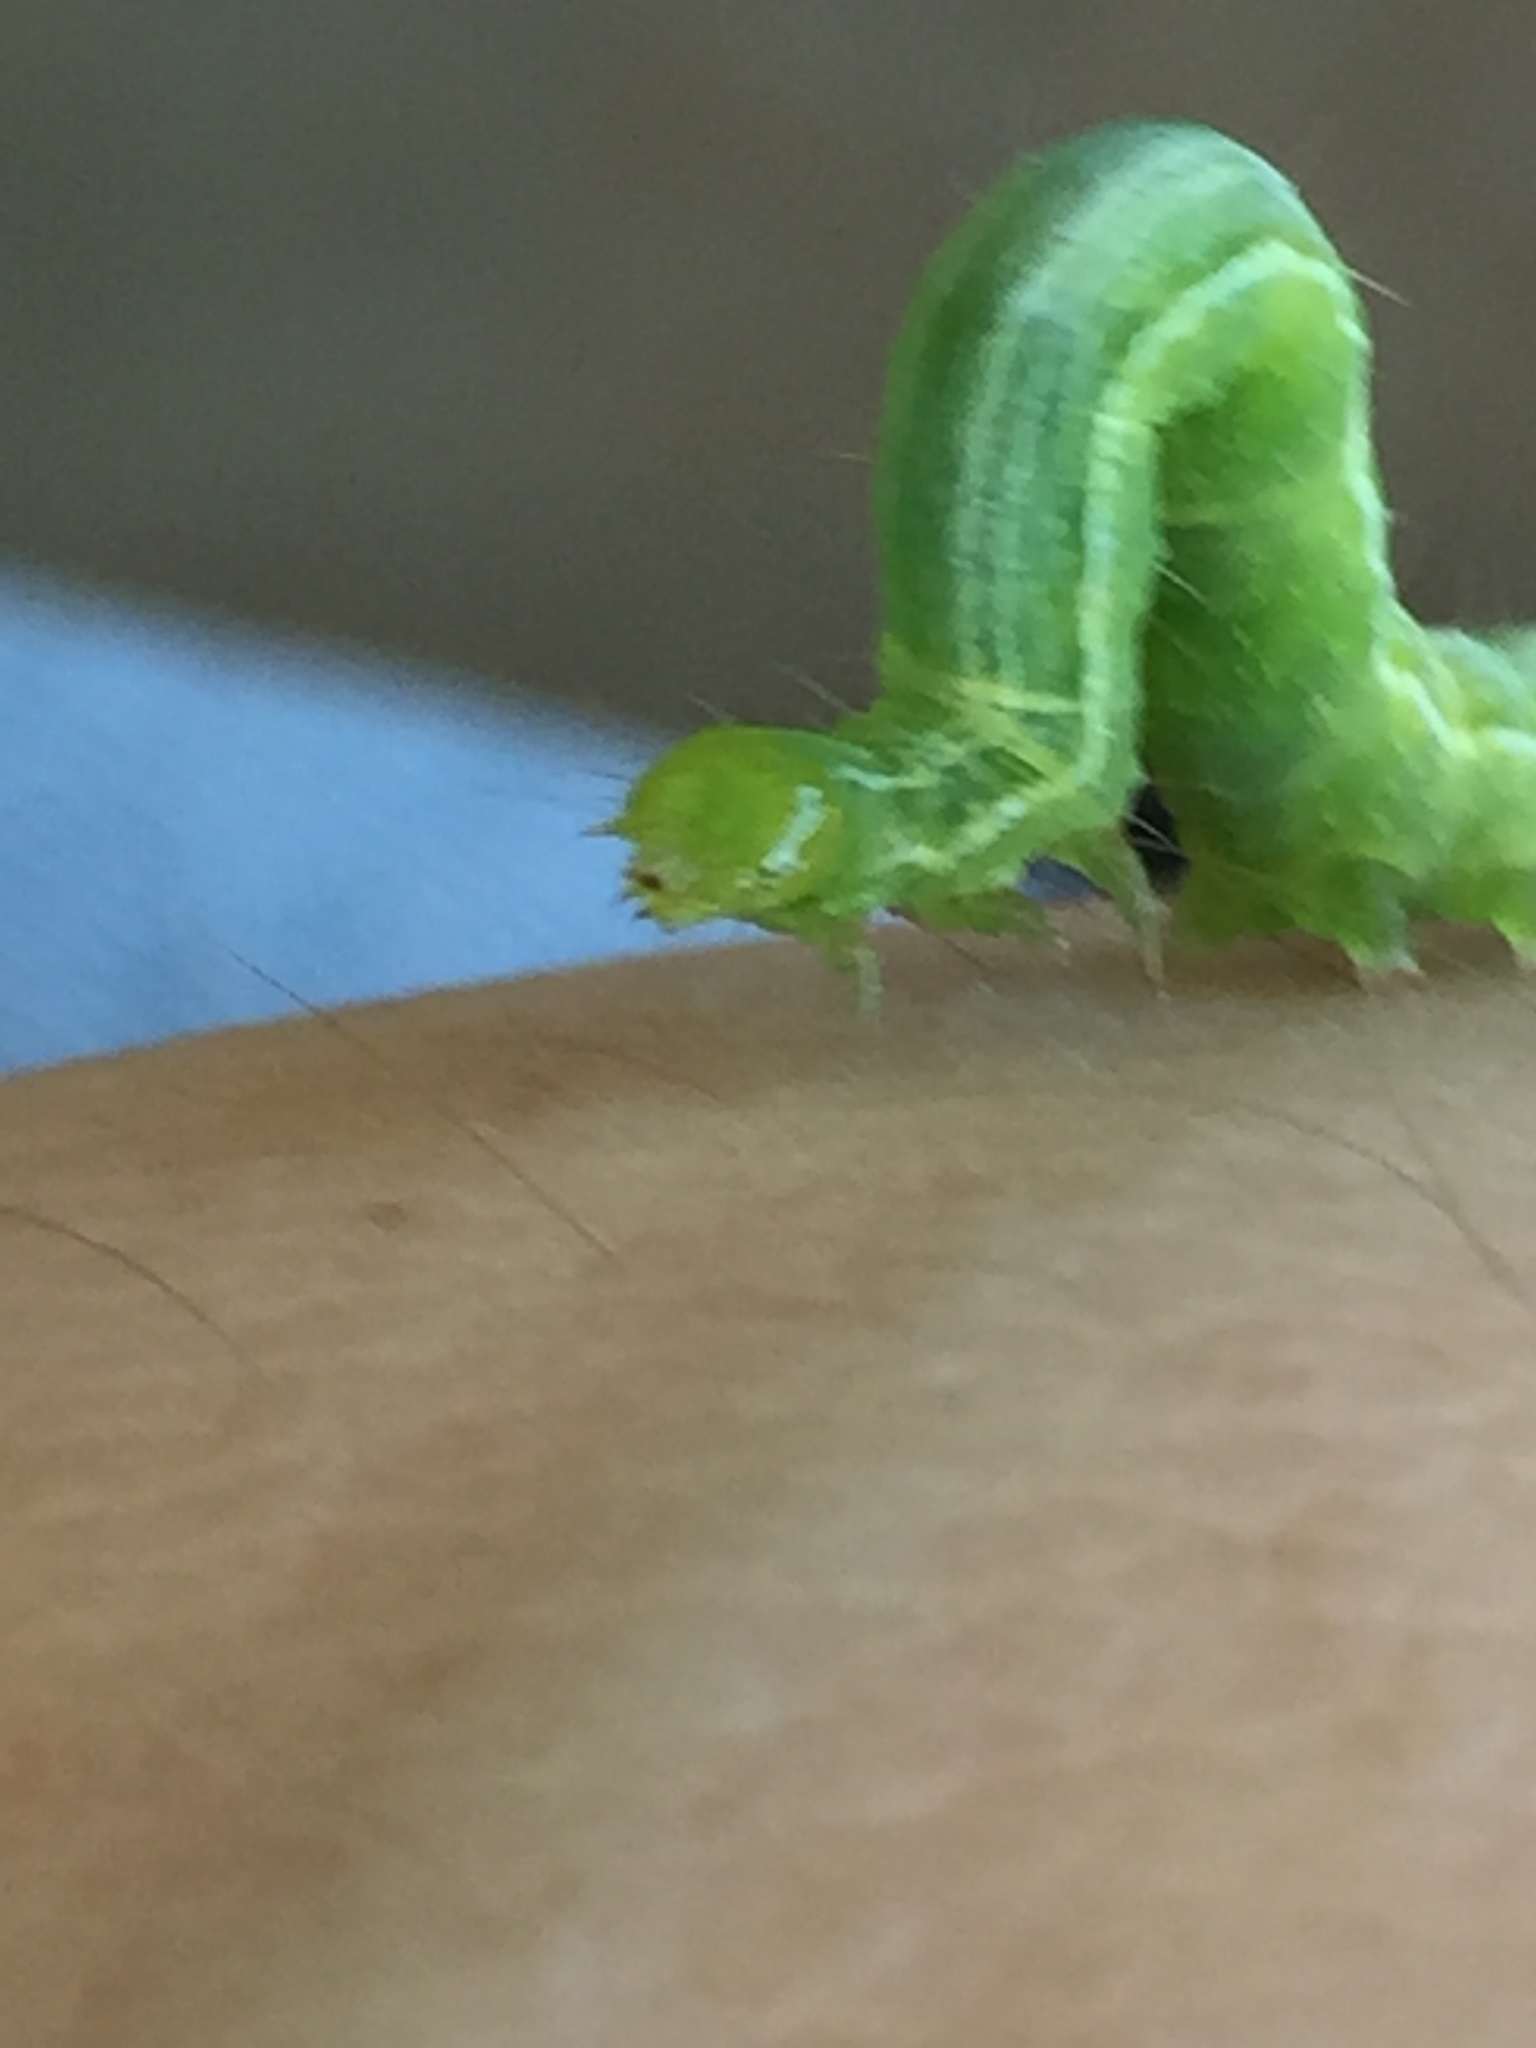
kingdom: Animalia
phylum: Arthropoda
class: Insecta
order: Lepidoptera
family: Noctuidae
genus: Callopistria
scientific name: Callopistria floridensis
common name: Florida fern moth
